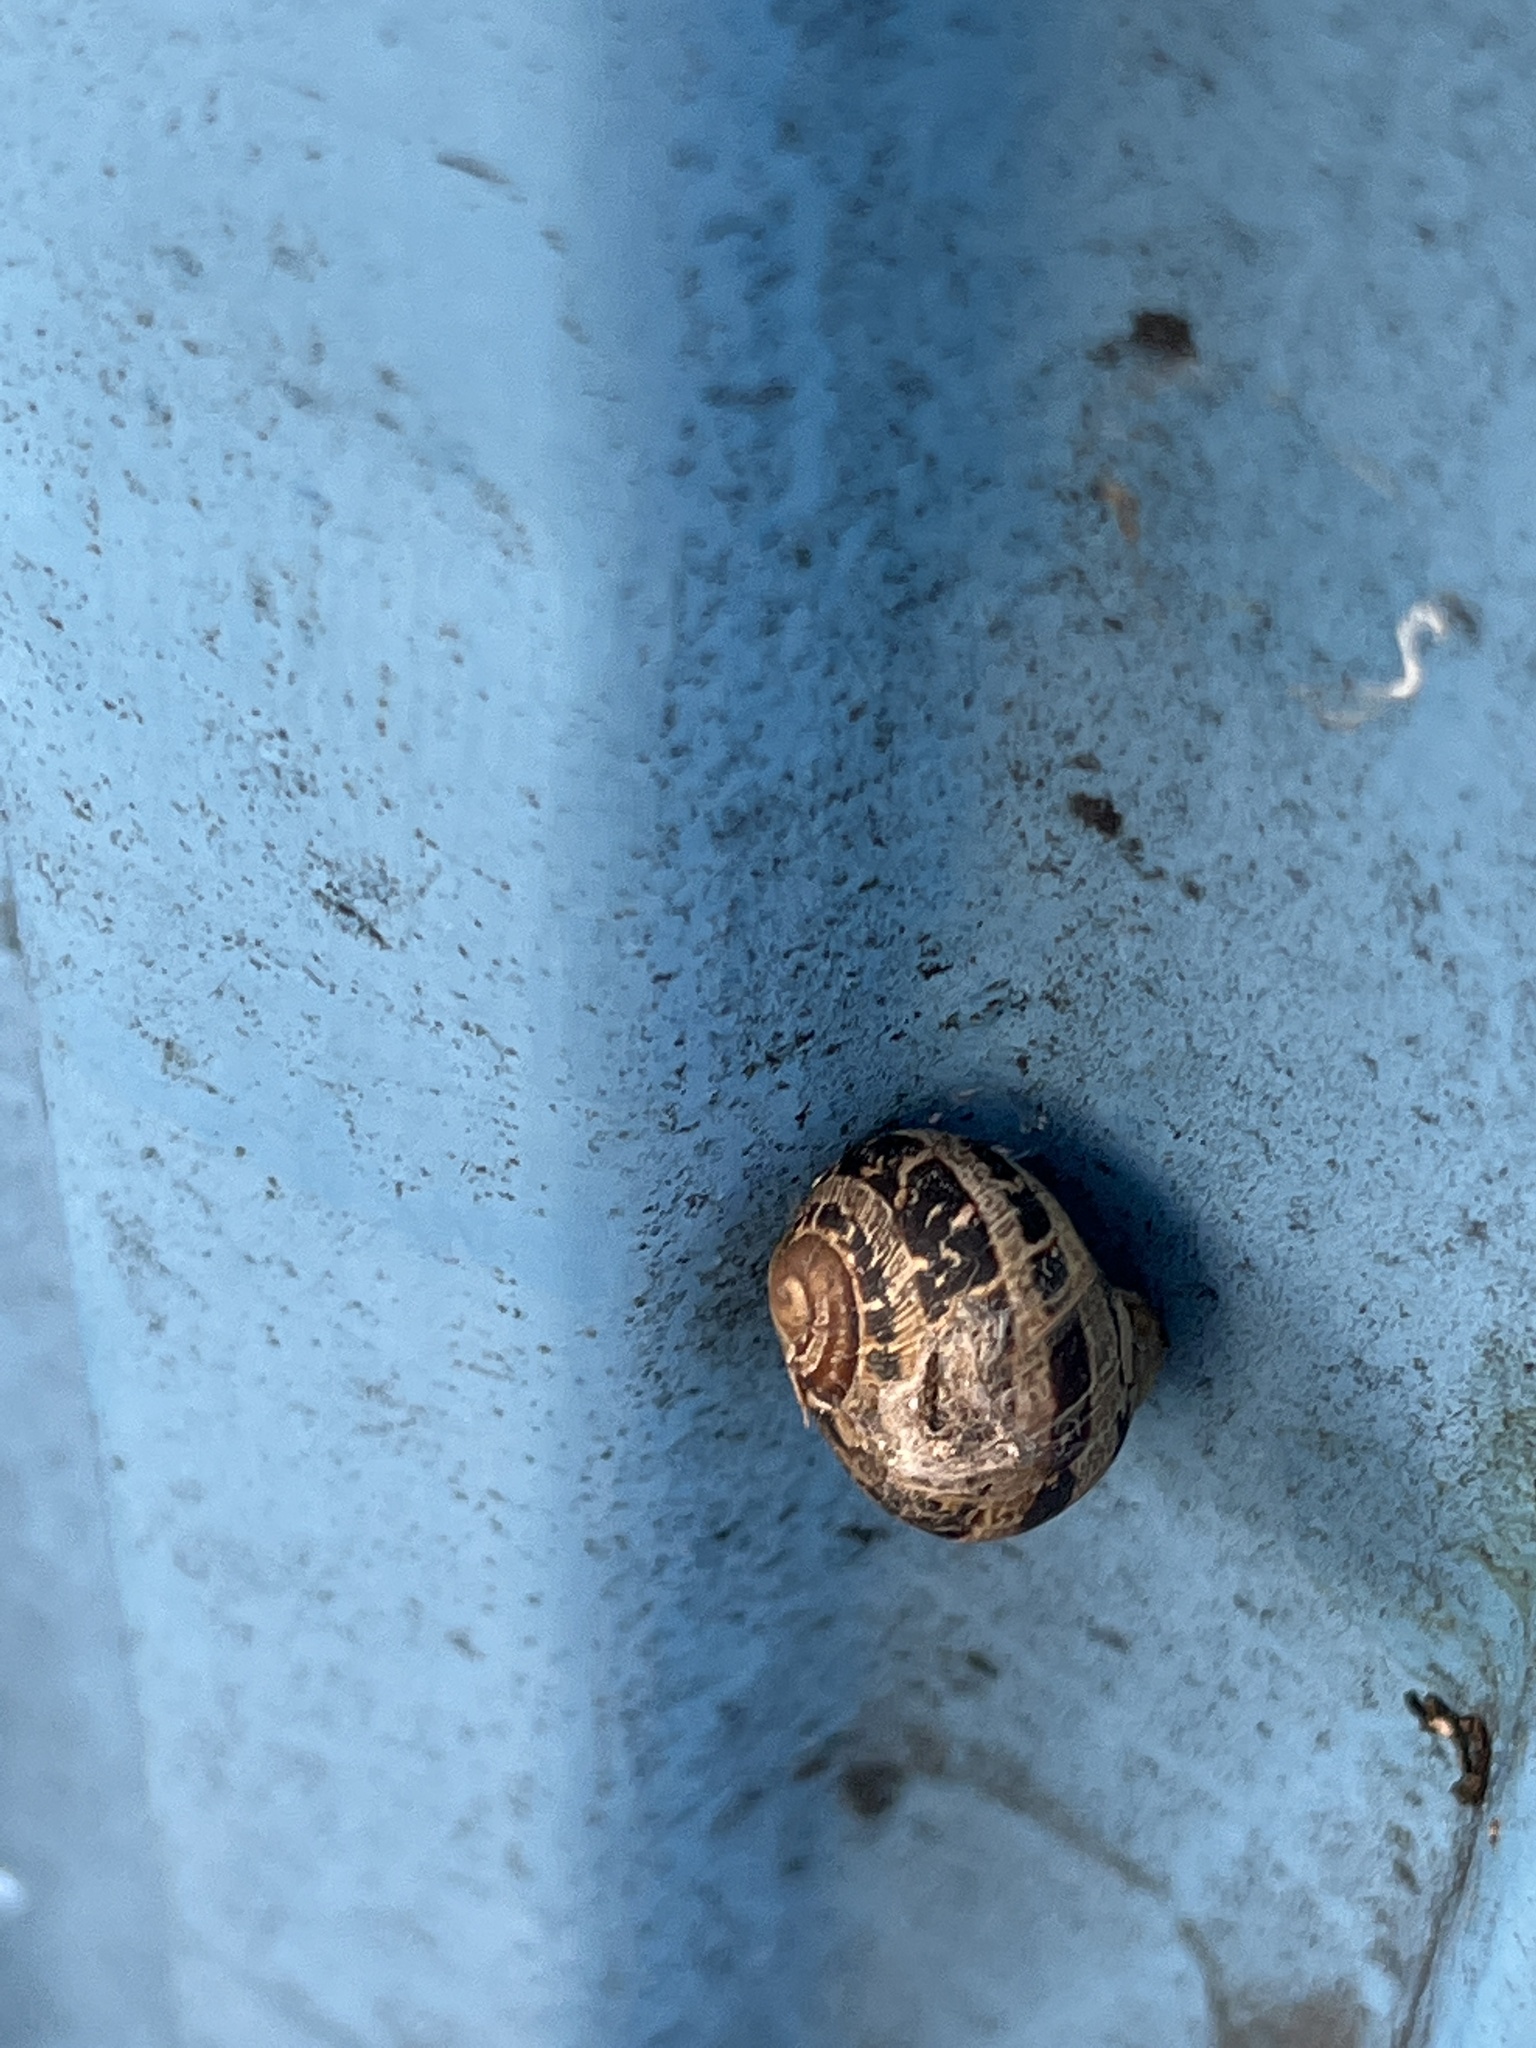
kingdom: Animalia
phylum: Mollusca
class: Gastropoda
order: Stylommatophora
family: Helicidae
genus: Cornu
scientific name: Cornu aspersum
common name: Brown garden snail
